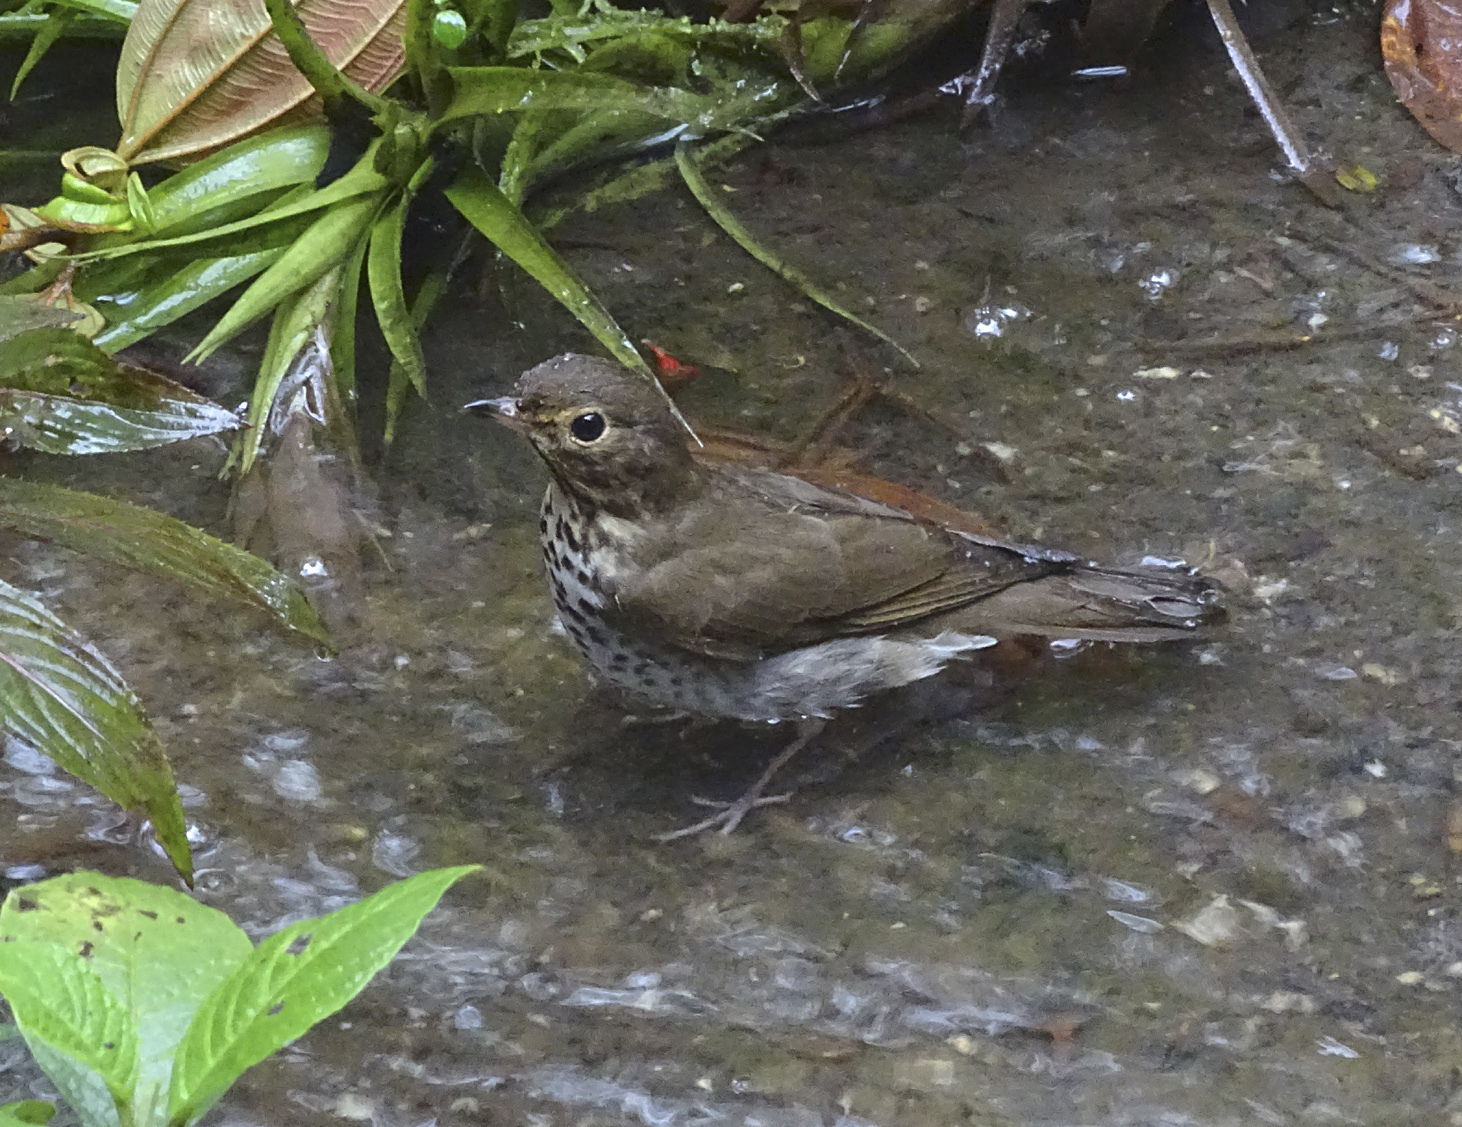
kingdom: Animalia
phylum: Chordata
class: Aves
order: Passeriformes
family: Turdidae
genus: Catharus
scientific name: Catharus ustulatus
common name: Swainson's thrush
